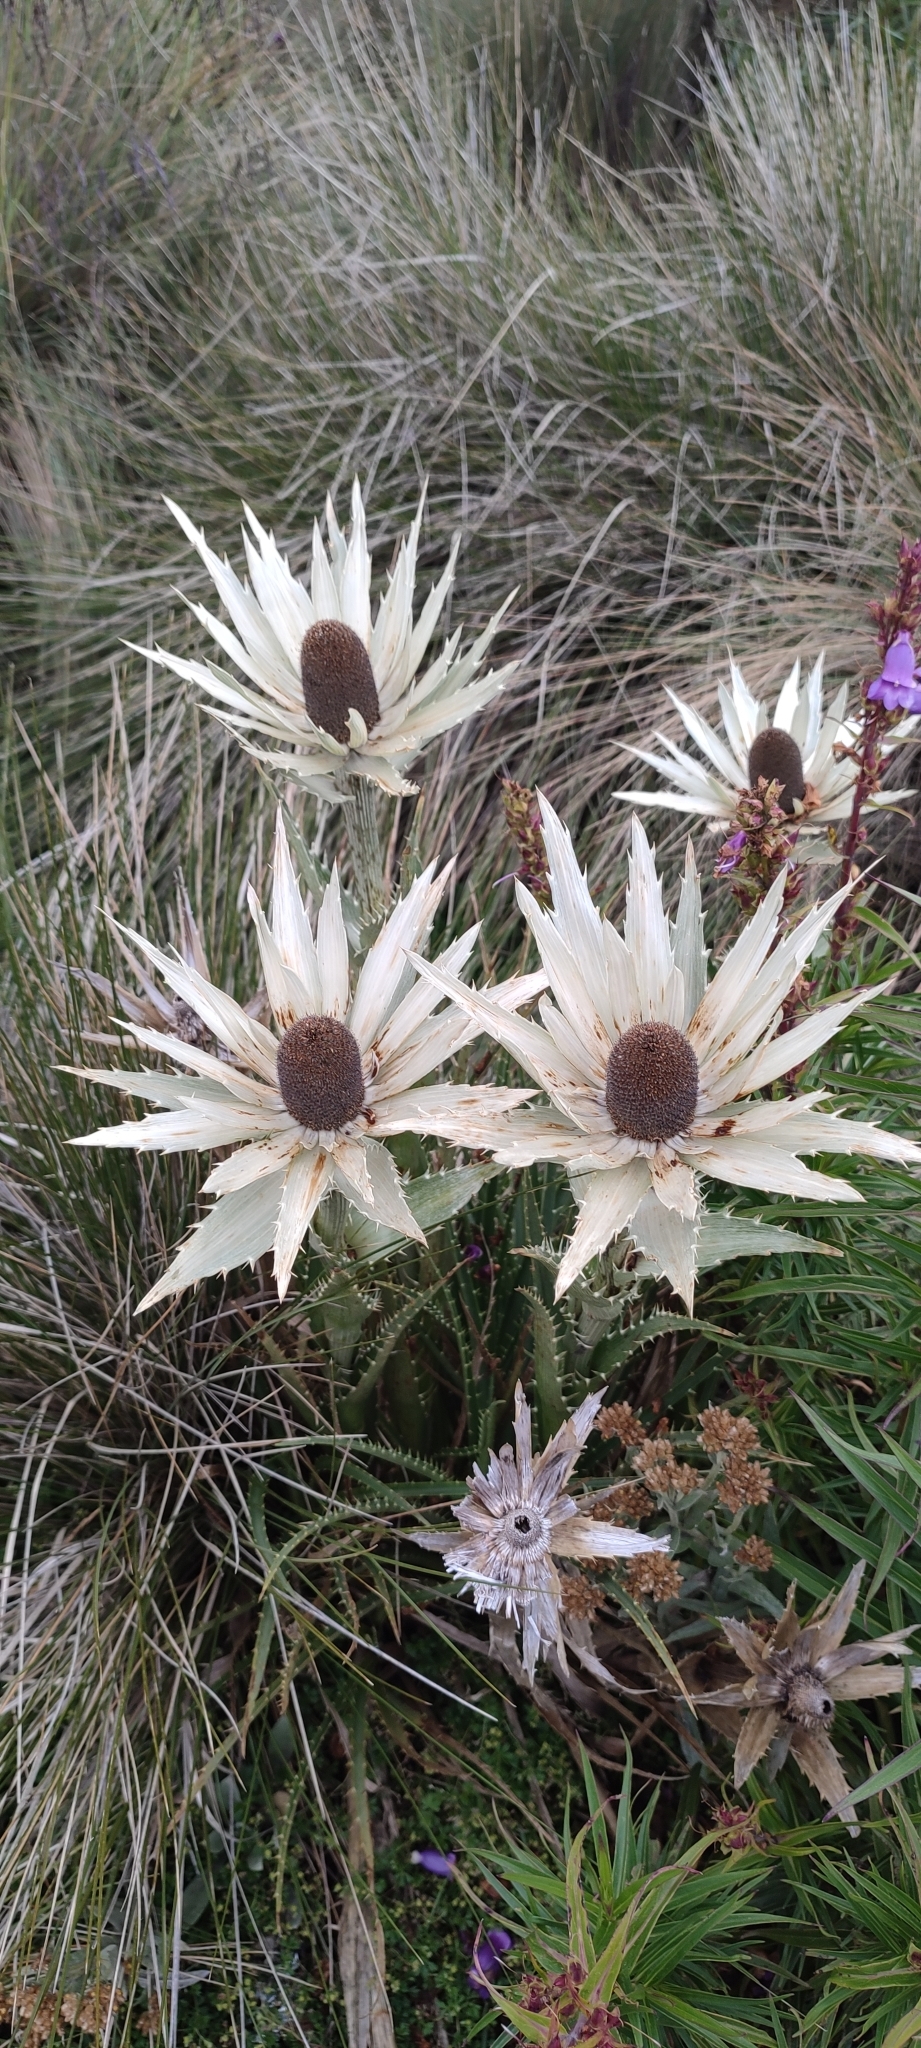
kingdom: Plantae
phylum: Tracheophyta
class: Magnoliopsida
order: Apiales
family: Apiaceae
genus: Eryngium
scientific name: Eryngium proteiflorum
